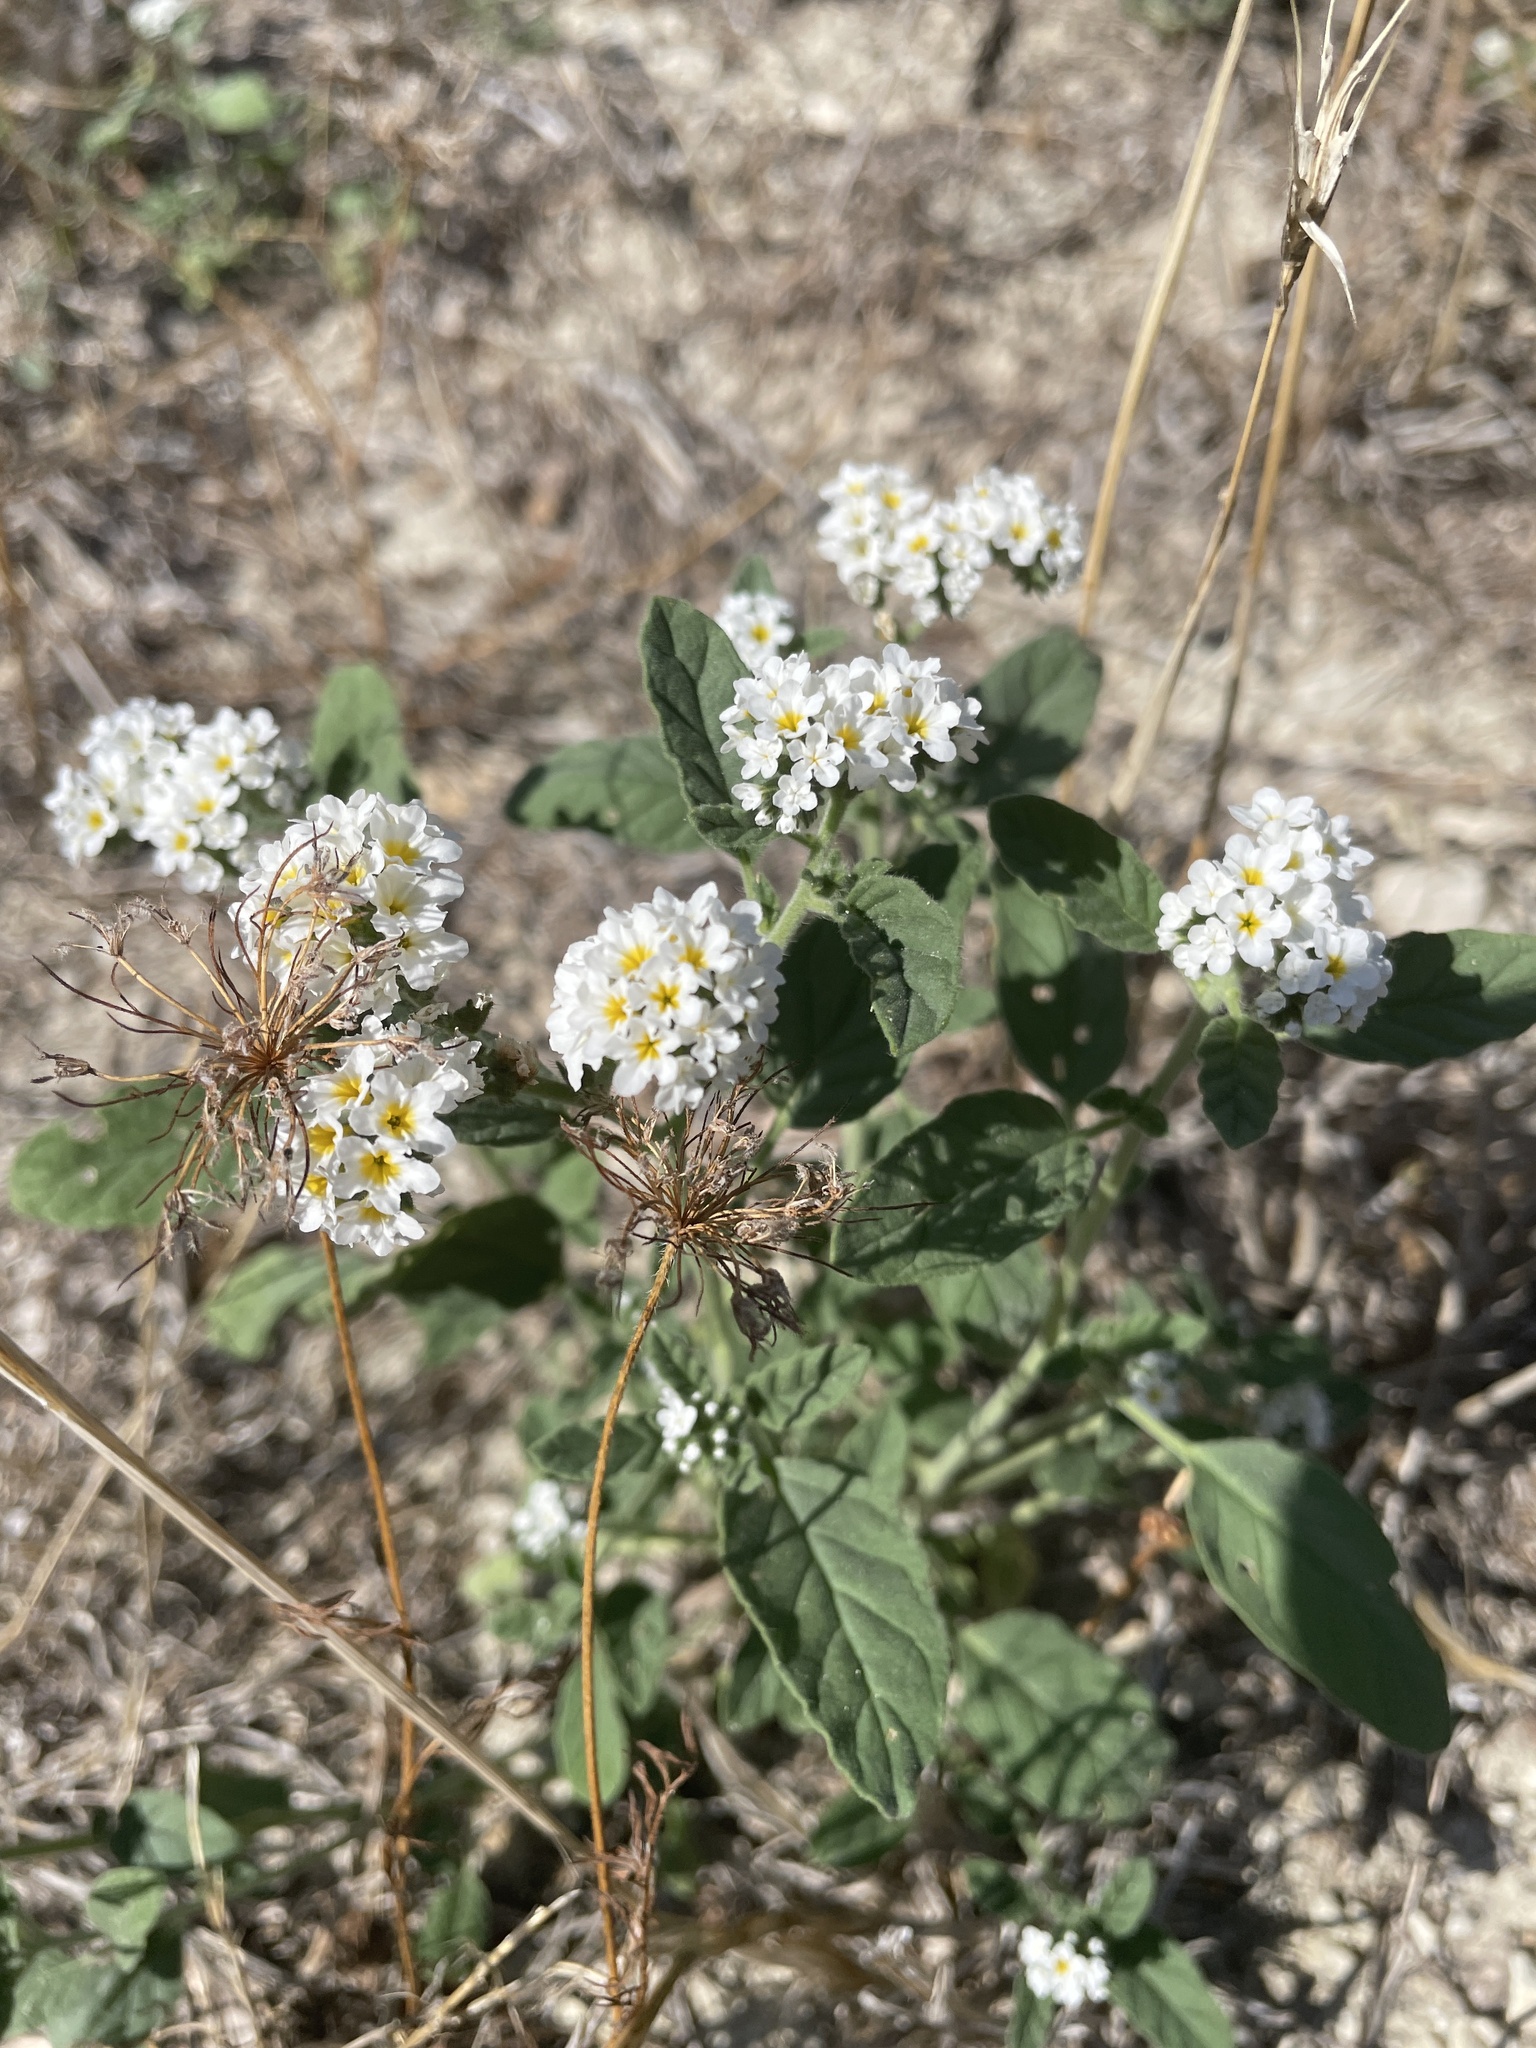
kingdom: Plantae
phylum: Tracheophyta
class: Magnoliopsida
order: Boraginales
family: Heliotropiaceae
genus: Heliotropium
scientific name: Heliotropium halacsyi
